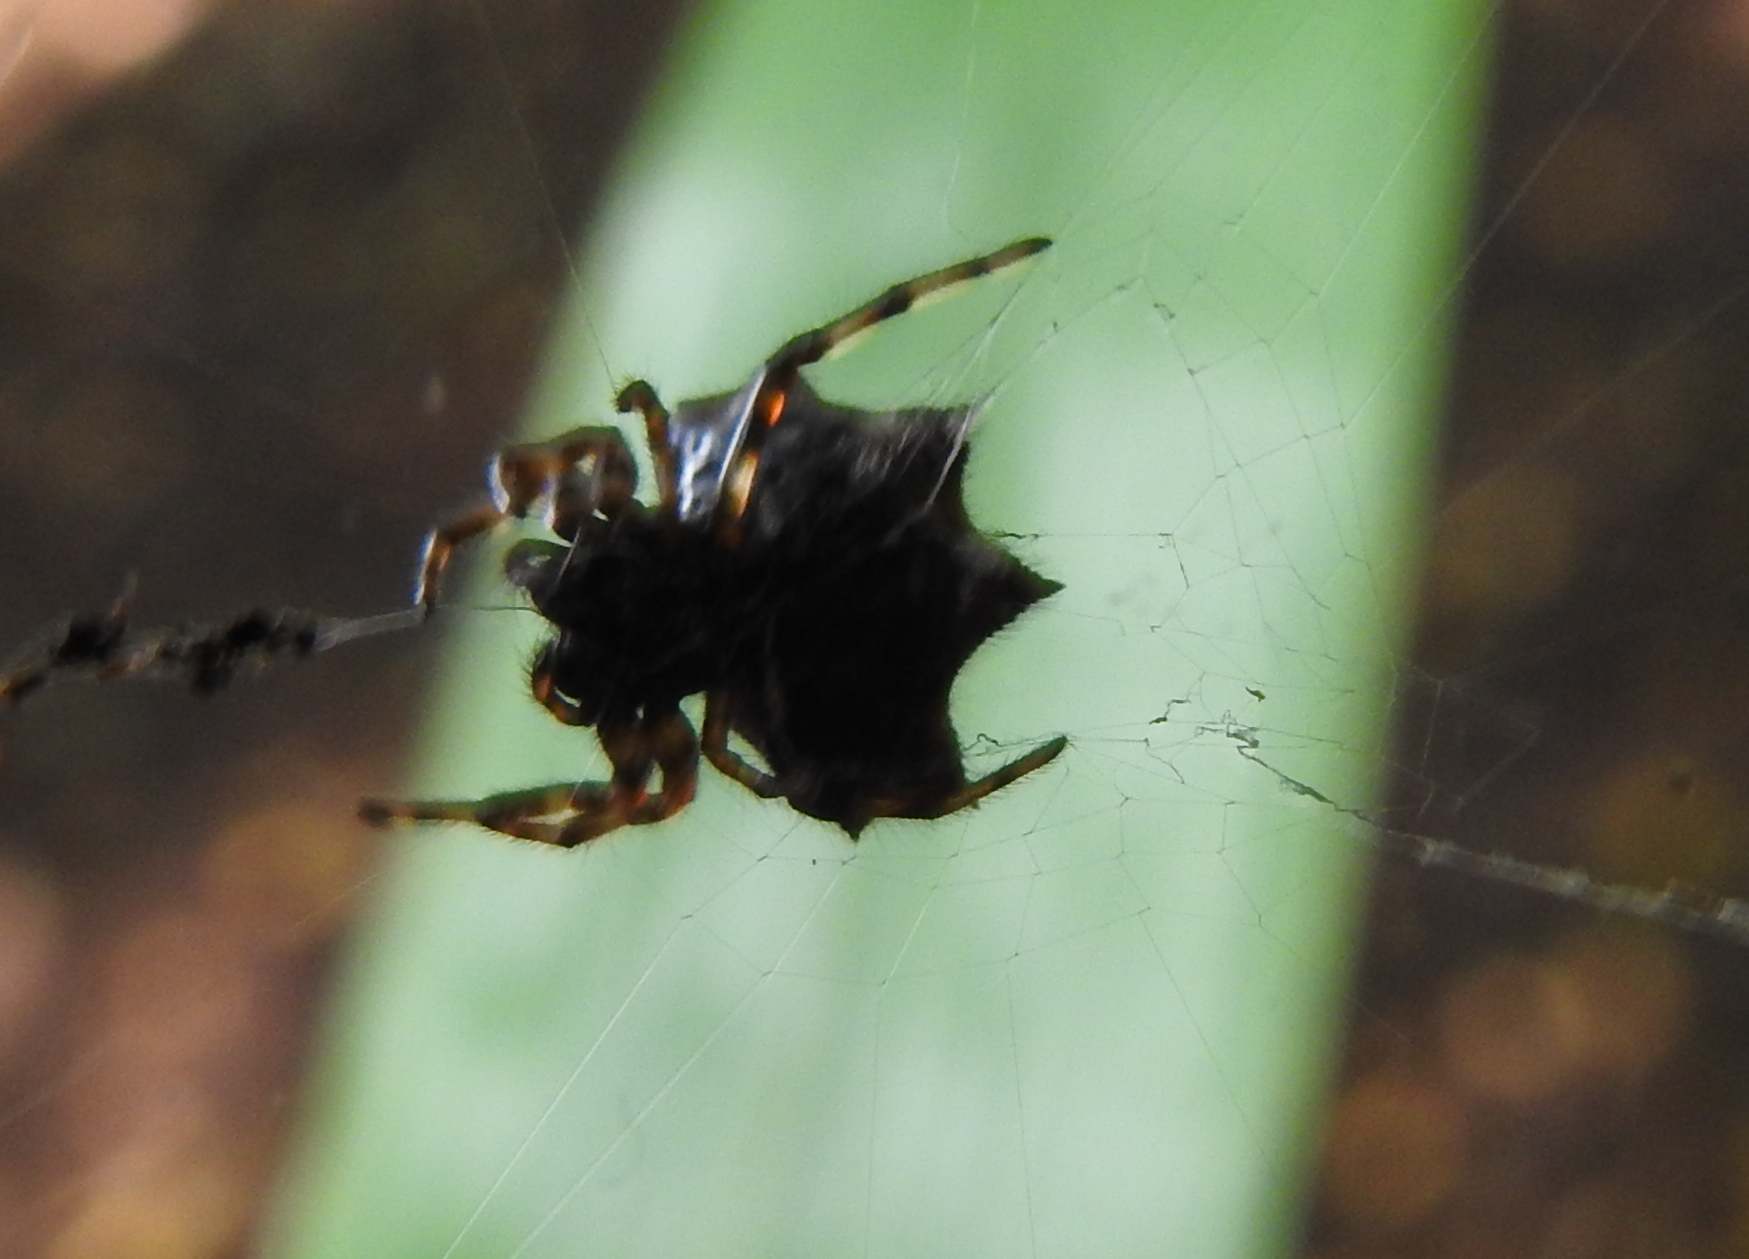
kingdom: Animalia
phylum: Arthropoda
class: Arachnida
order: Araneae
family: Araneidae
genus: Gasteracantha
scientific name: Gasteracantha kuhli
